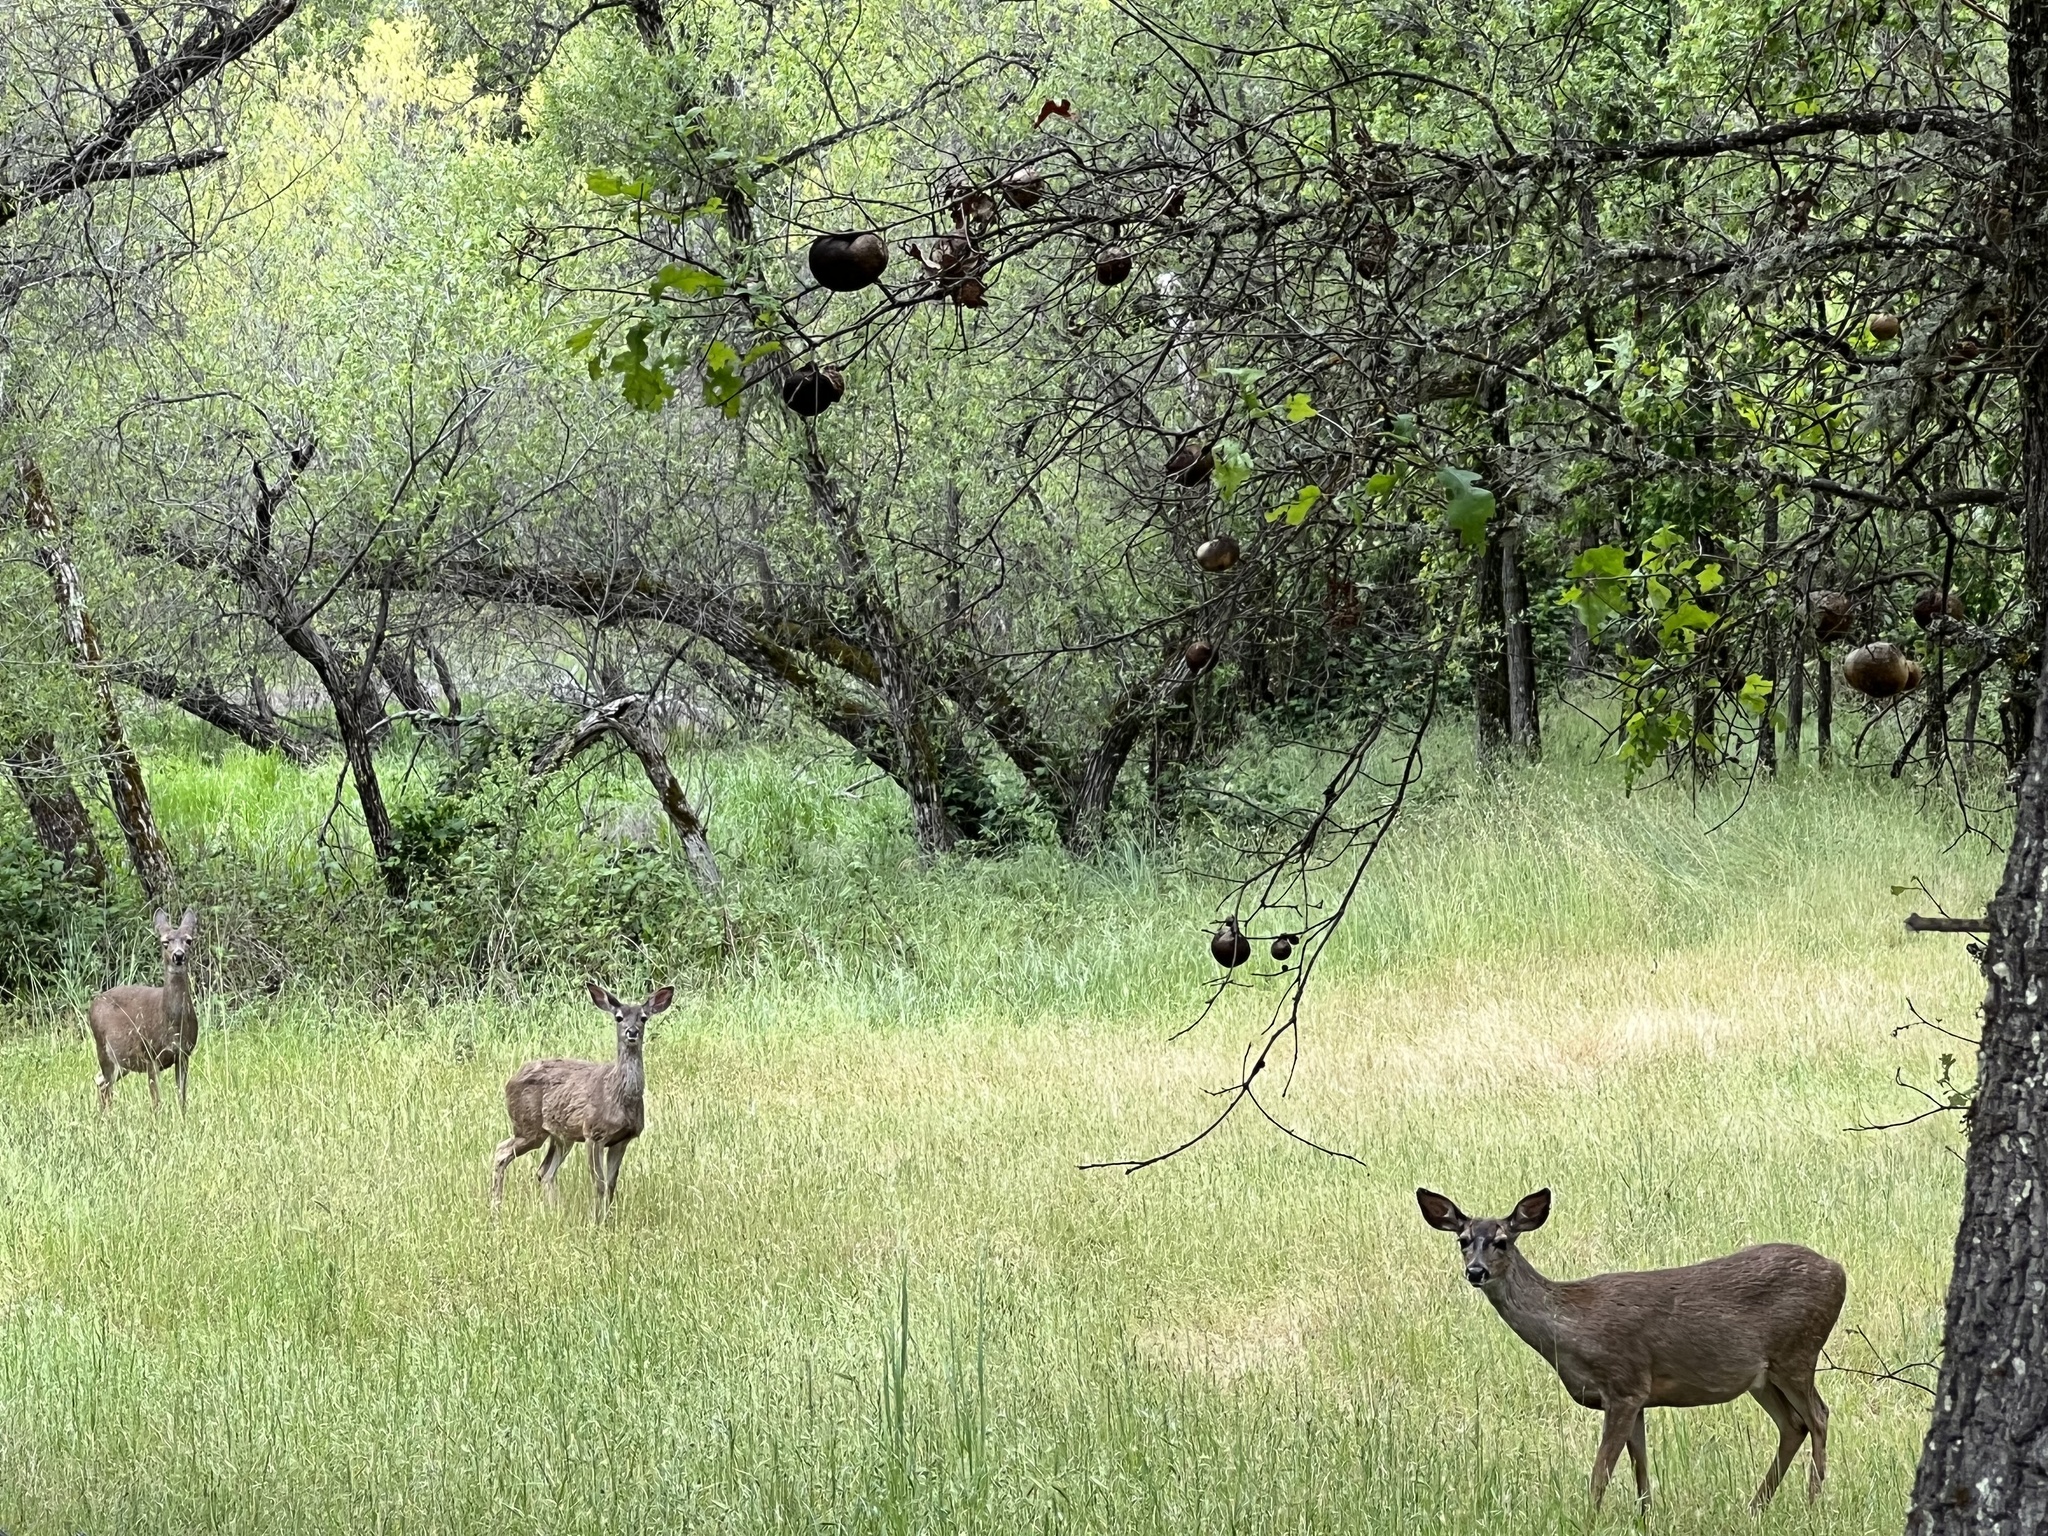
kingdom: Animalia
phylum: Chordata
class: Mammalia
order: Artiodactyla
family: Cervidae
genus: Odocoileus
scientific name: Odocoileus hemionus
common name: Mule deer
